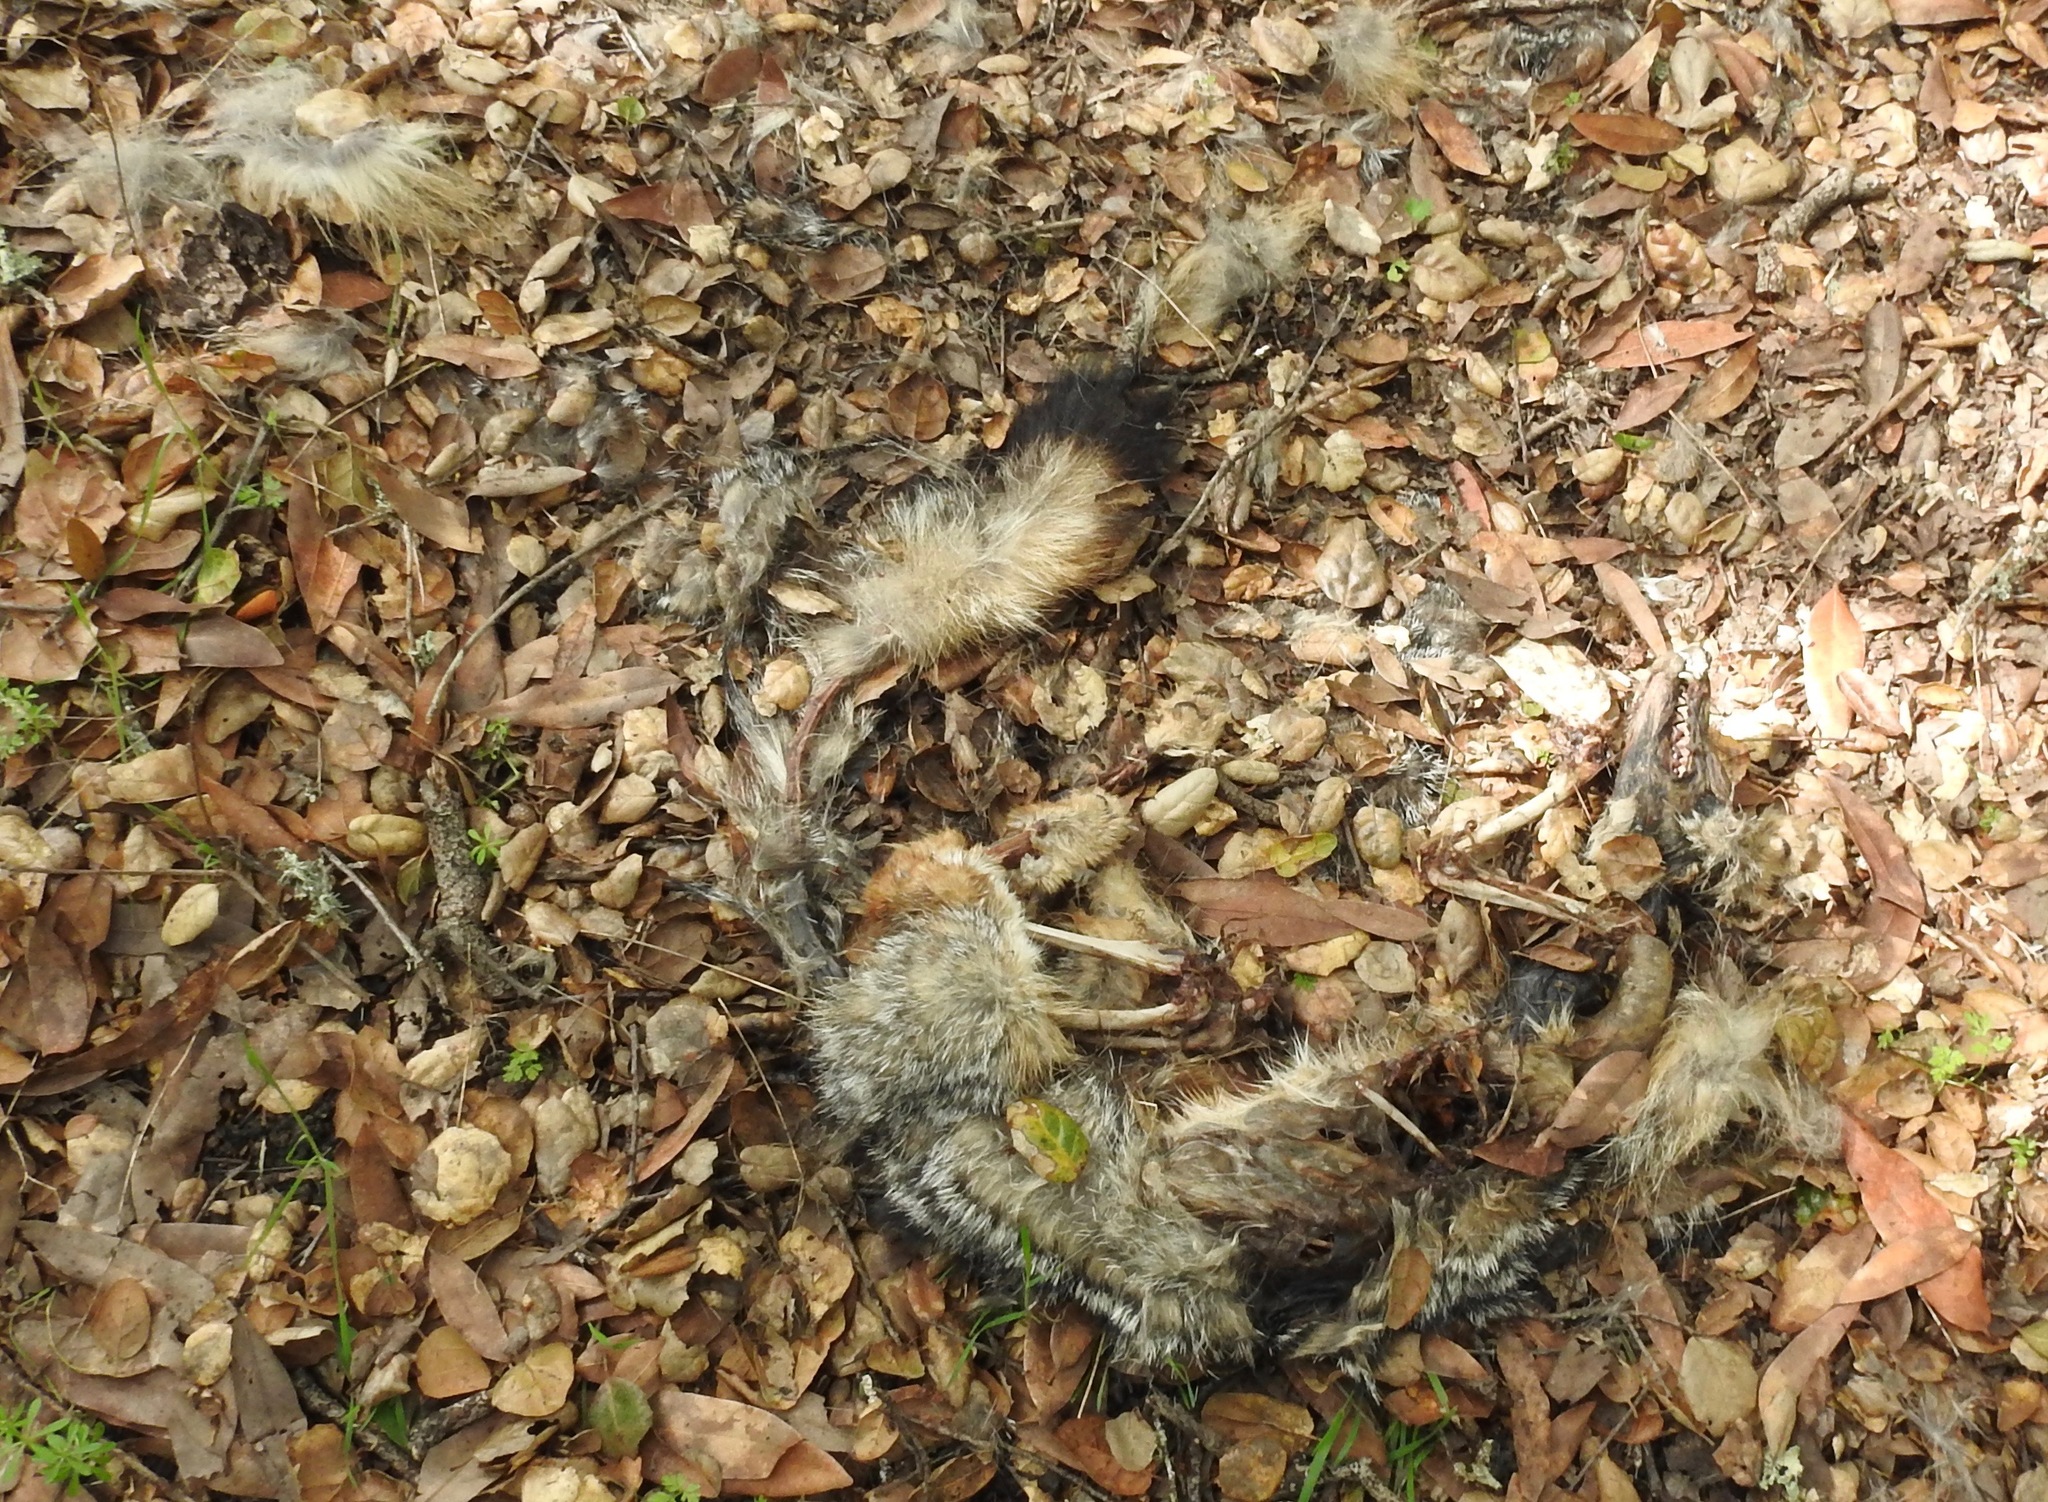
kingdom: Animalia
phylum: Chordata
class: Mammalia
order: Carnivora
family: Canidae
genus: Urocyon
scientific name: Urocyon cinereoargenteus
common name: Gray fox
